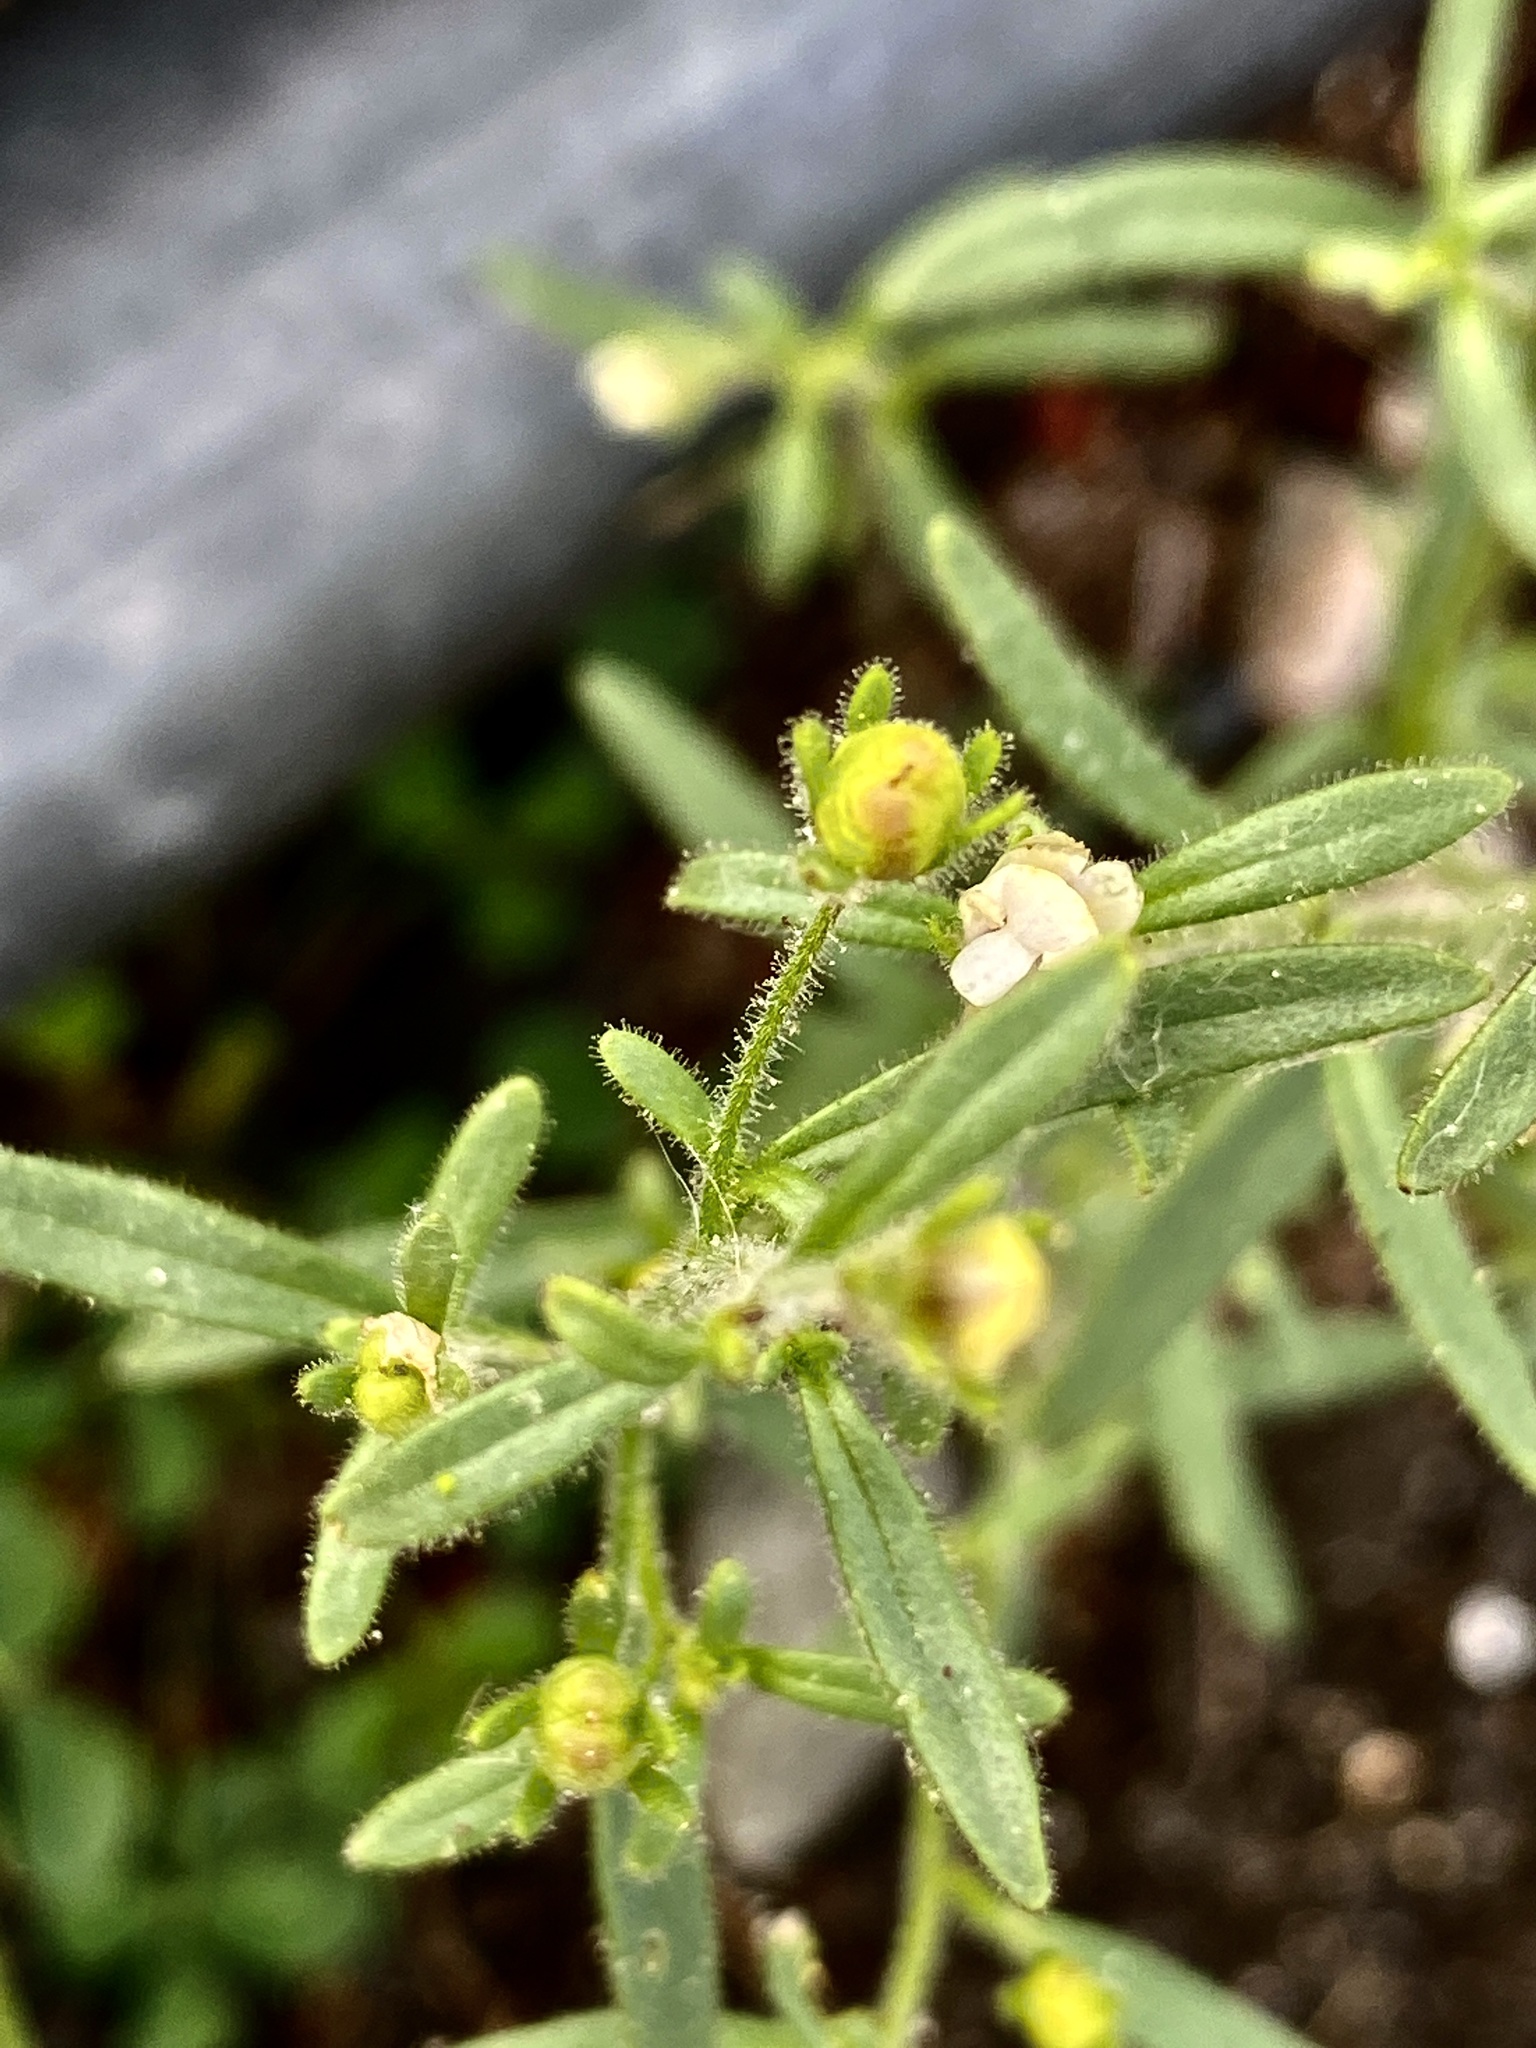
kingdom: Plantae
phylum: Tracheophyta
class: Magnoliopsida
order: Lamiales
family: Plantaginaceae
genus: Chaenorhinum
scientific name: Chaenorhinum minus
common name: Dwarf snapdragon
